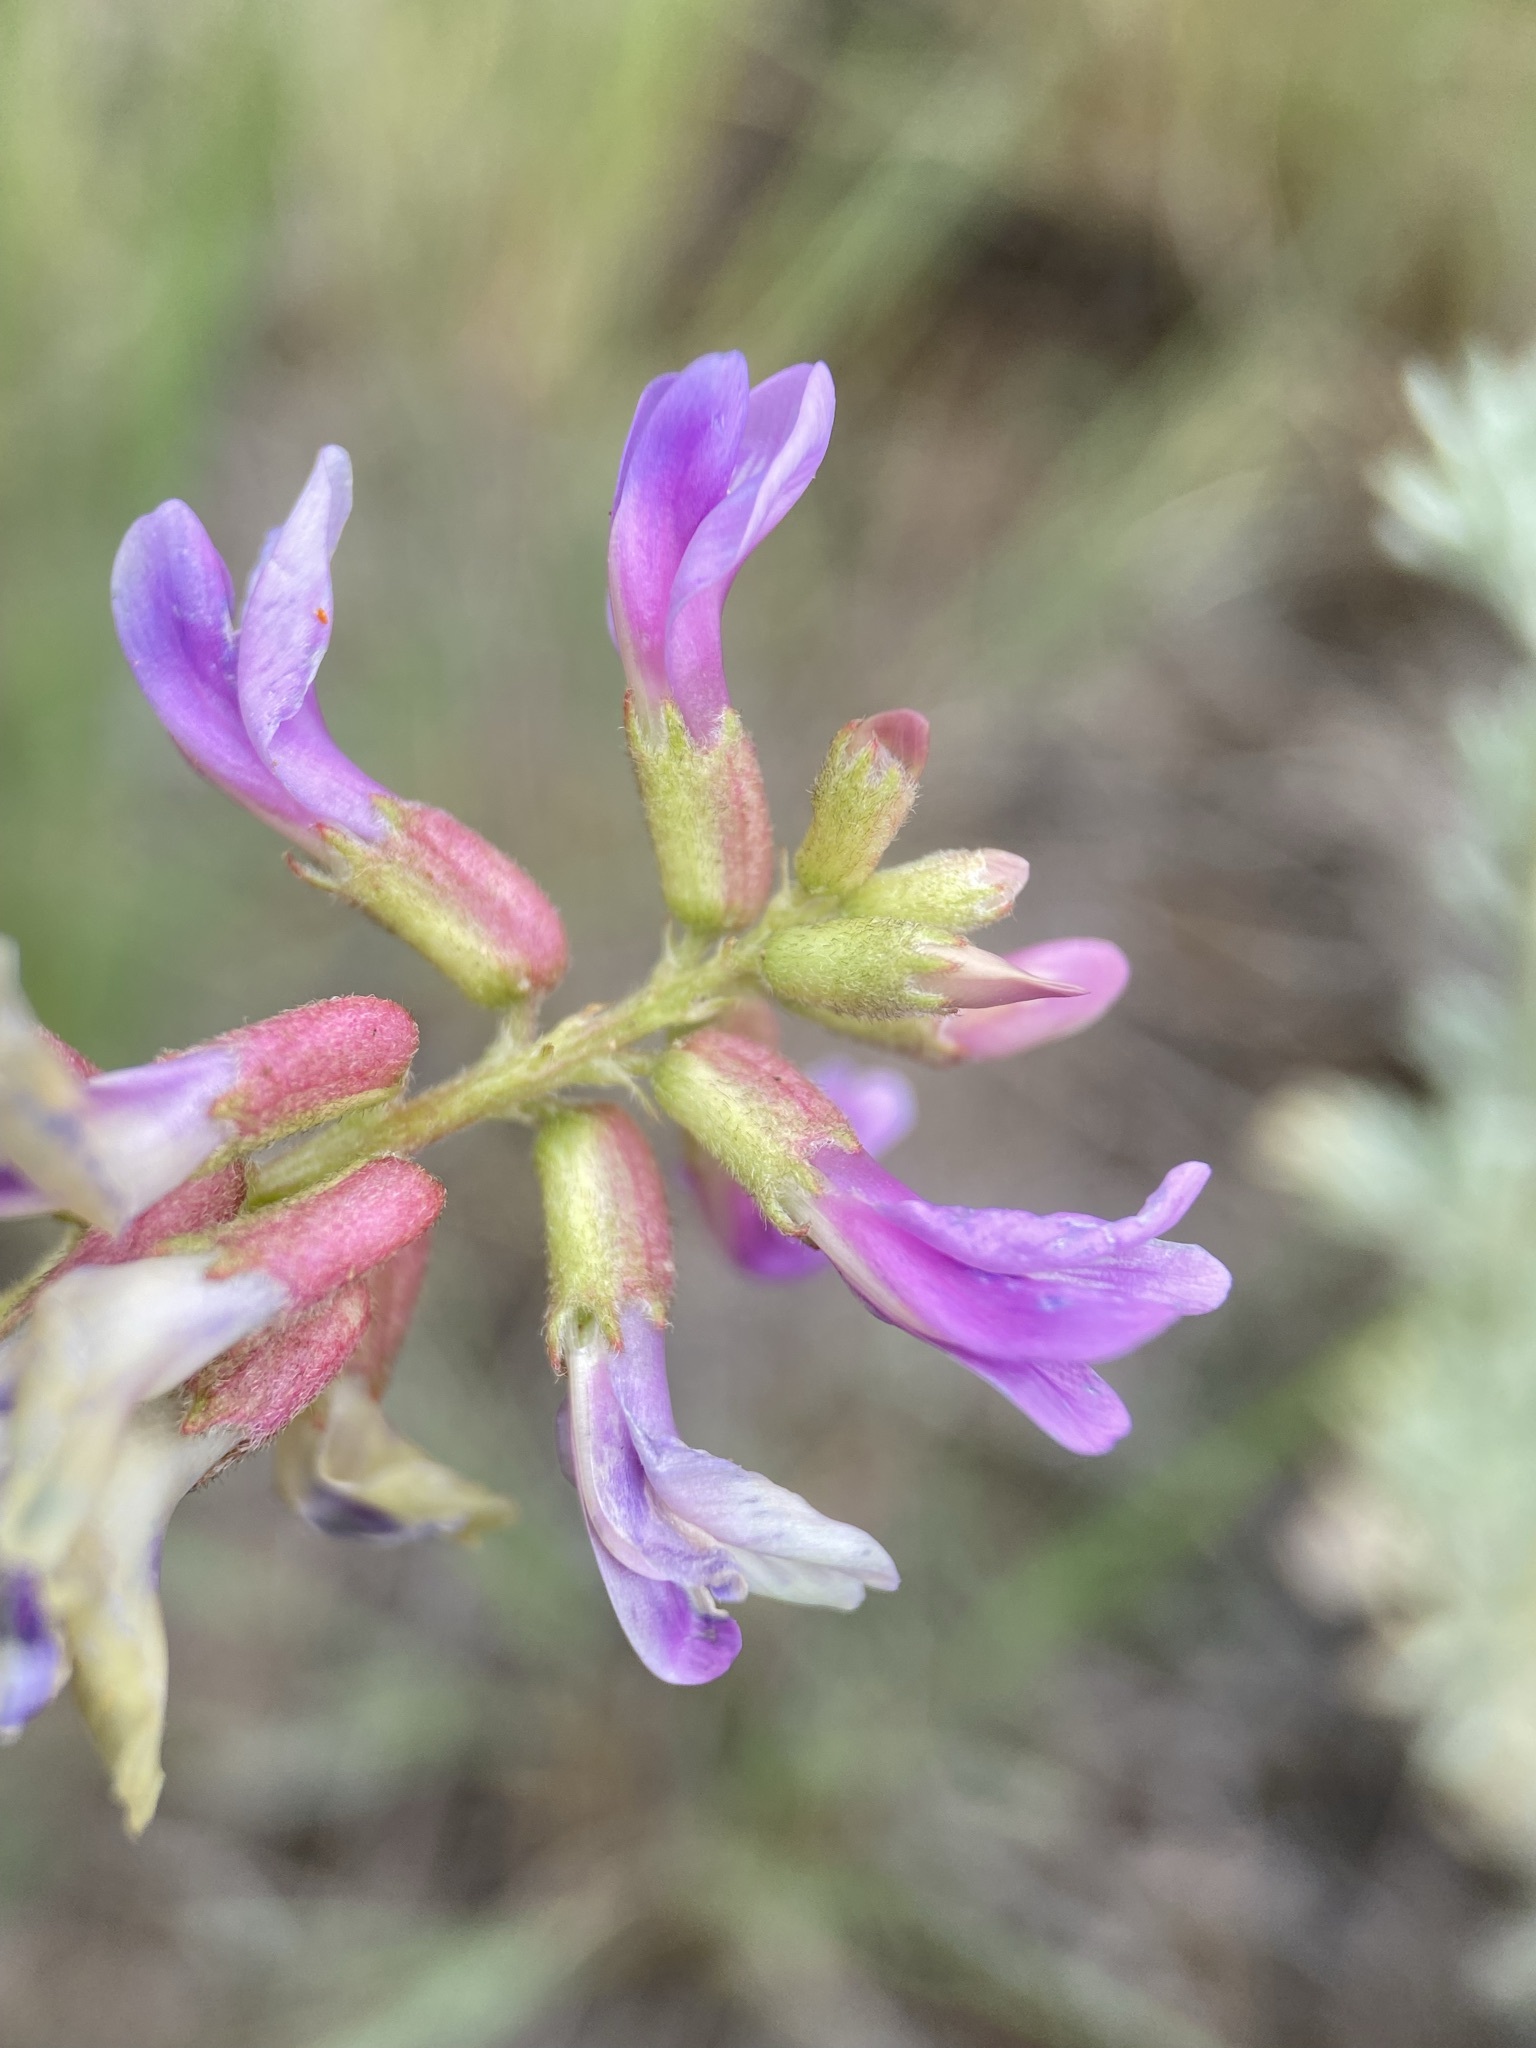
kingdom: Plantae
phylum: Tracheophyta
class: Magnoliopsida
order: Fabales
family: Fabaceae
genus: Astragalus
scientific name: Astragalus hallii
